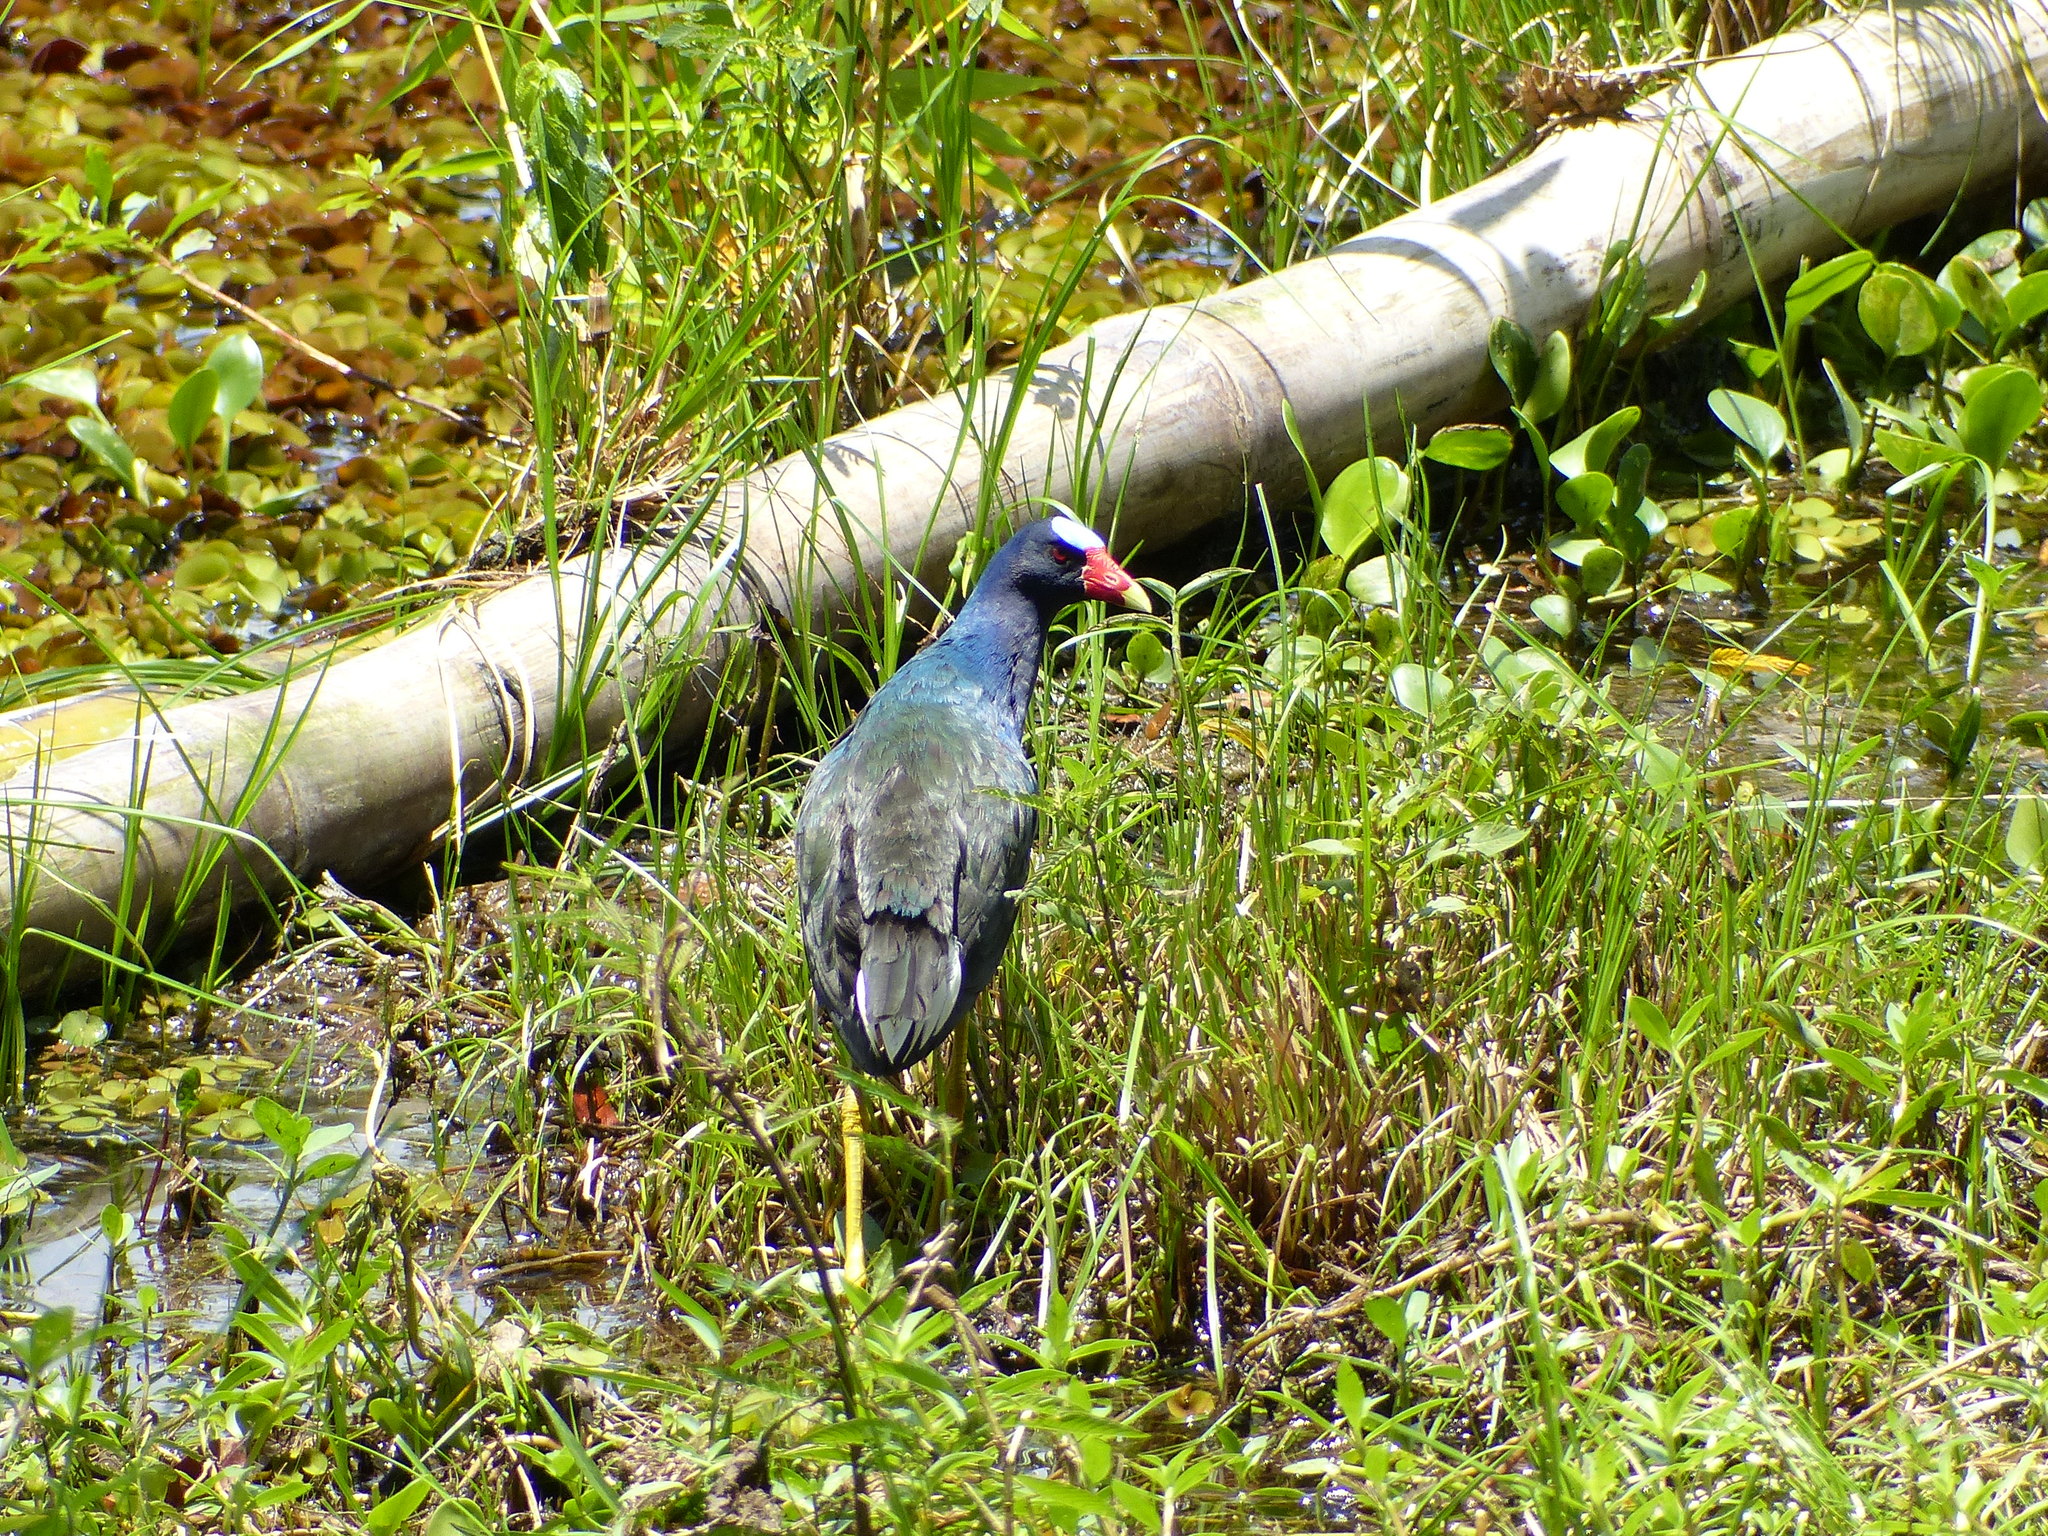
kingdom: Animalia
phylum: Chordata
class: Aves
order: Gruiformes
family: Rallidae
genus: Porphyrio
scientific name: Porphyrio martinica
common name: Purple gallinule
